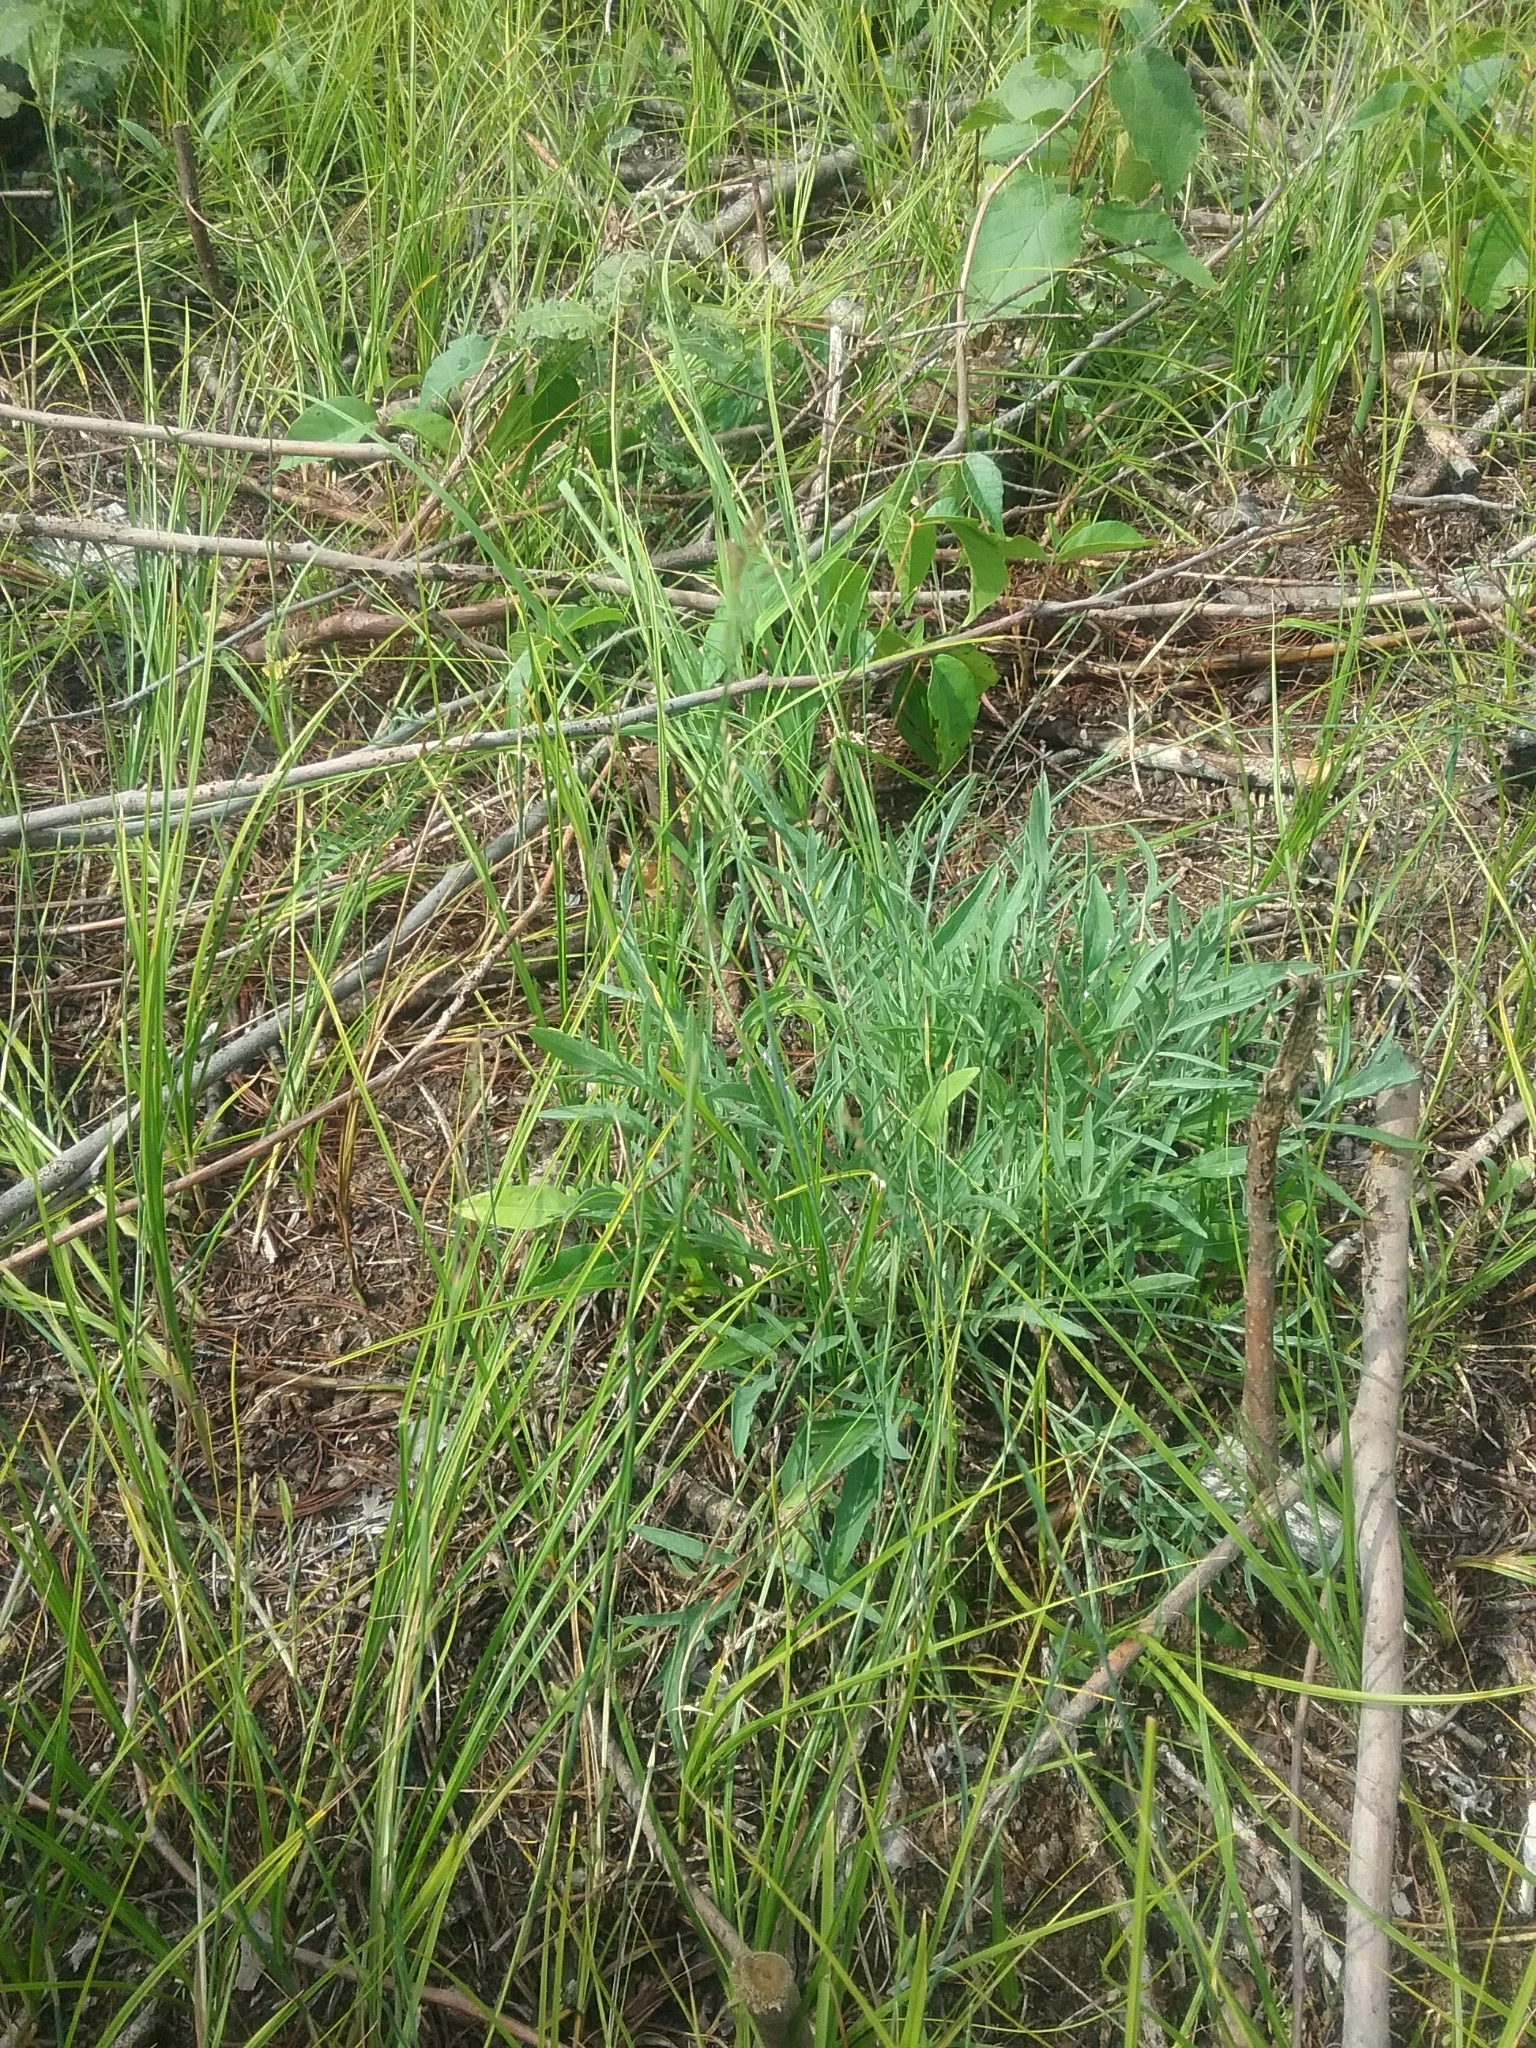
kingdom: Plantae
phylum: Tracheophyta
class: Magnoliopsida
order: Asterales
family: Asteraceae
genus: Centaurea
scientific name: Centaurea stoebe
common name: Spotted knapweed
